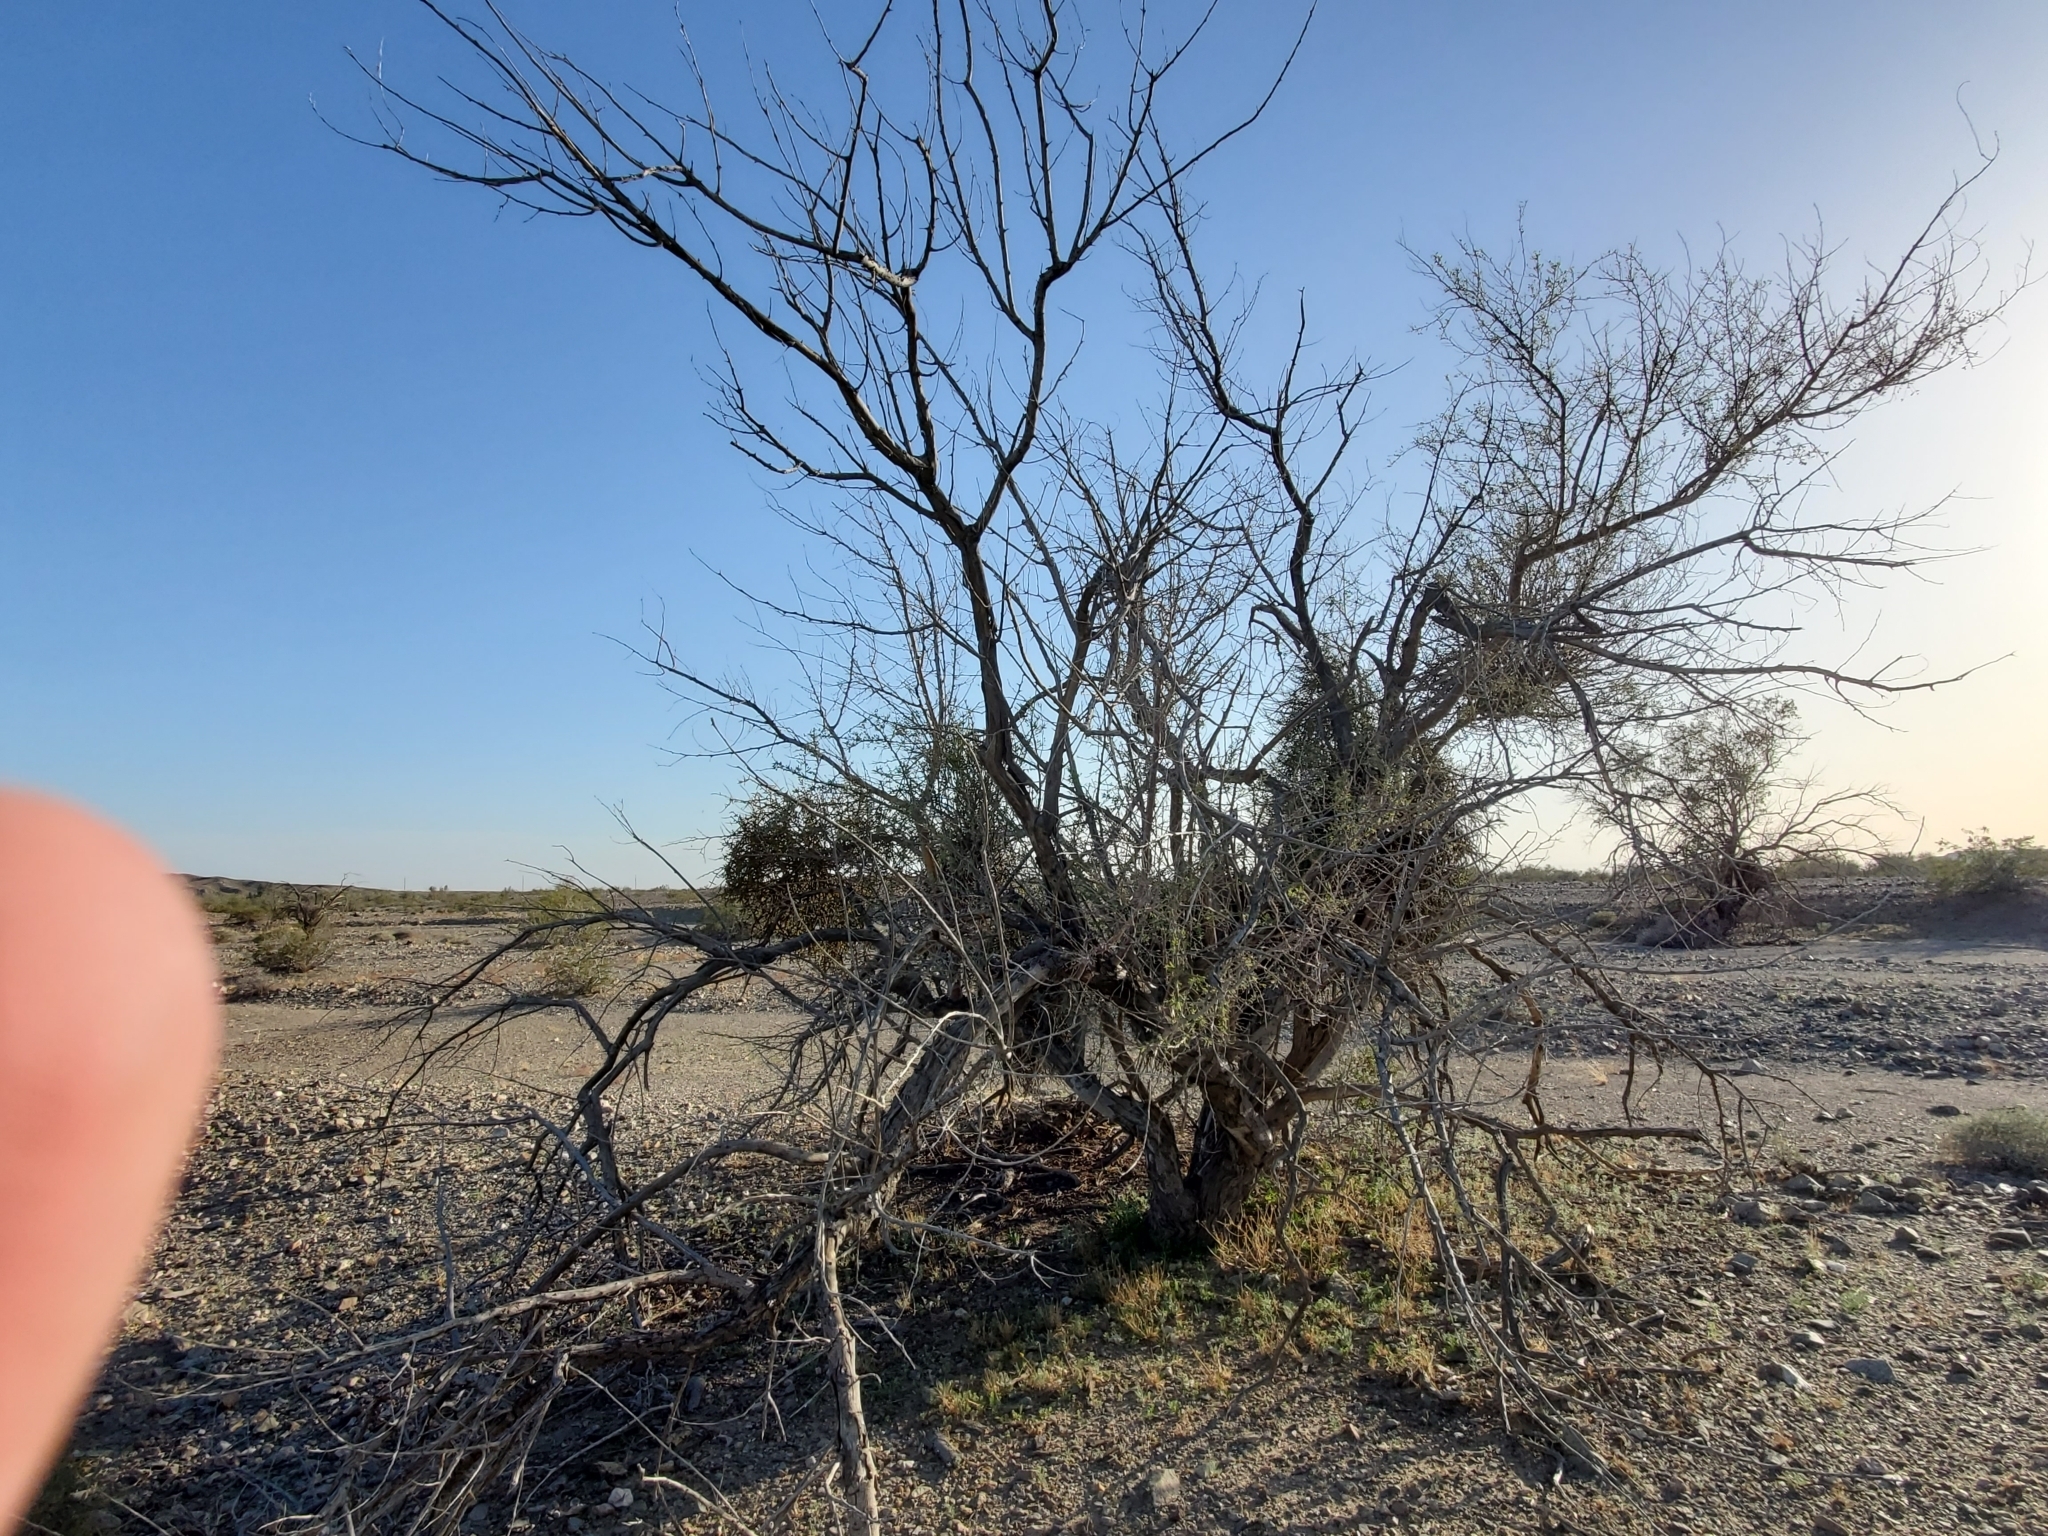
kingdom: Plantae
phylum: Tracheophyta
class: Magnoliopsida
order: Santalales
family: Viscaceae
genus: Phoradendron
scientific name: Phoradendron californicum
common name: Acacia mistletoe
